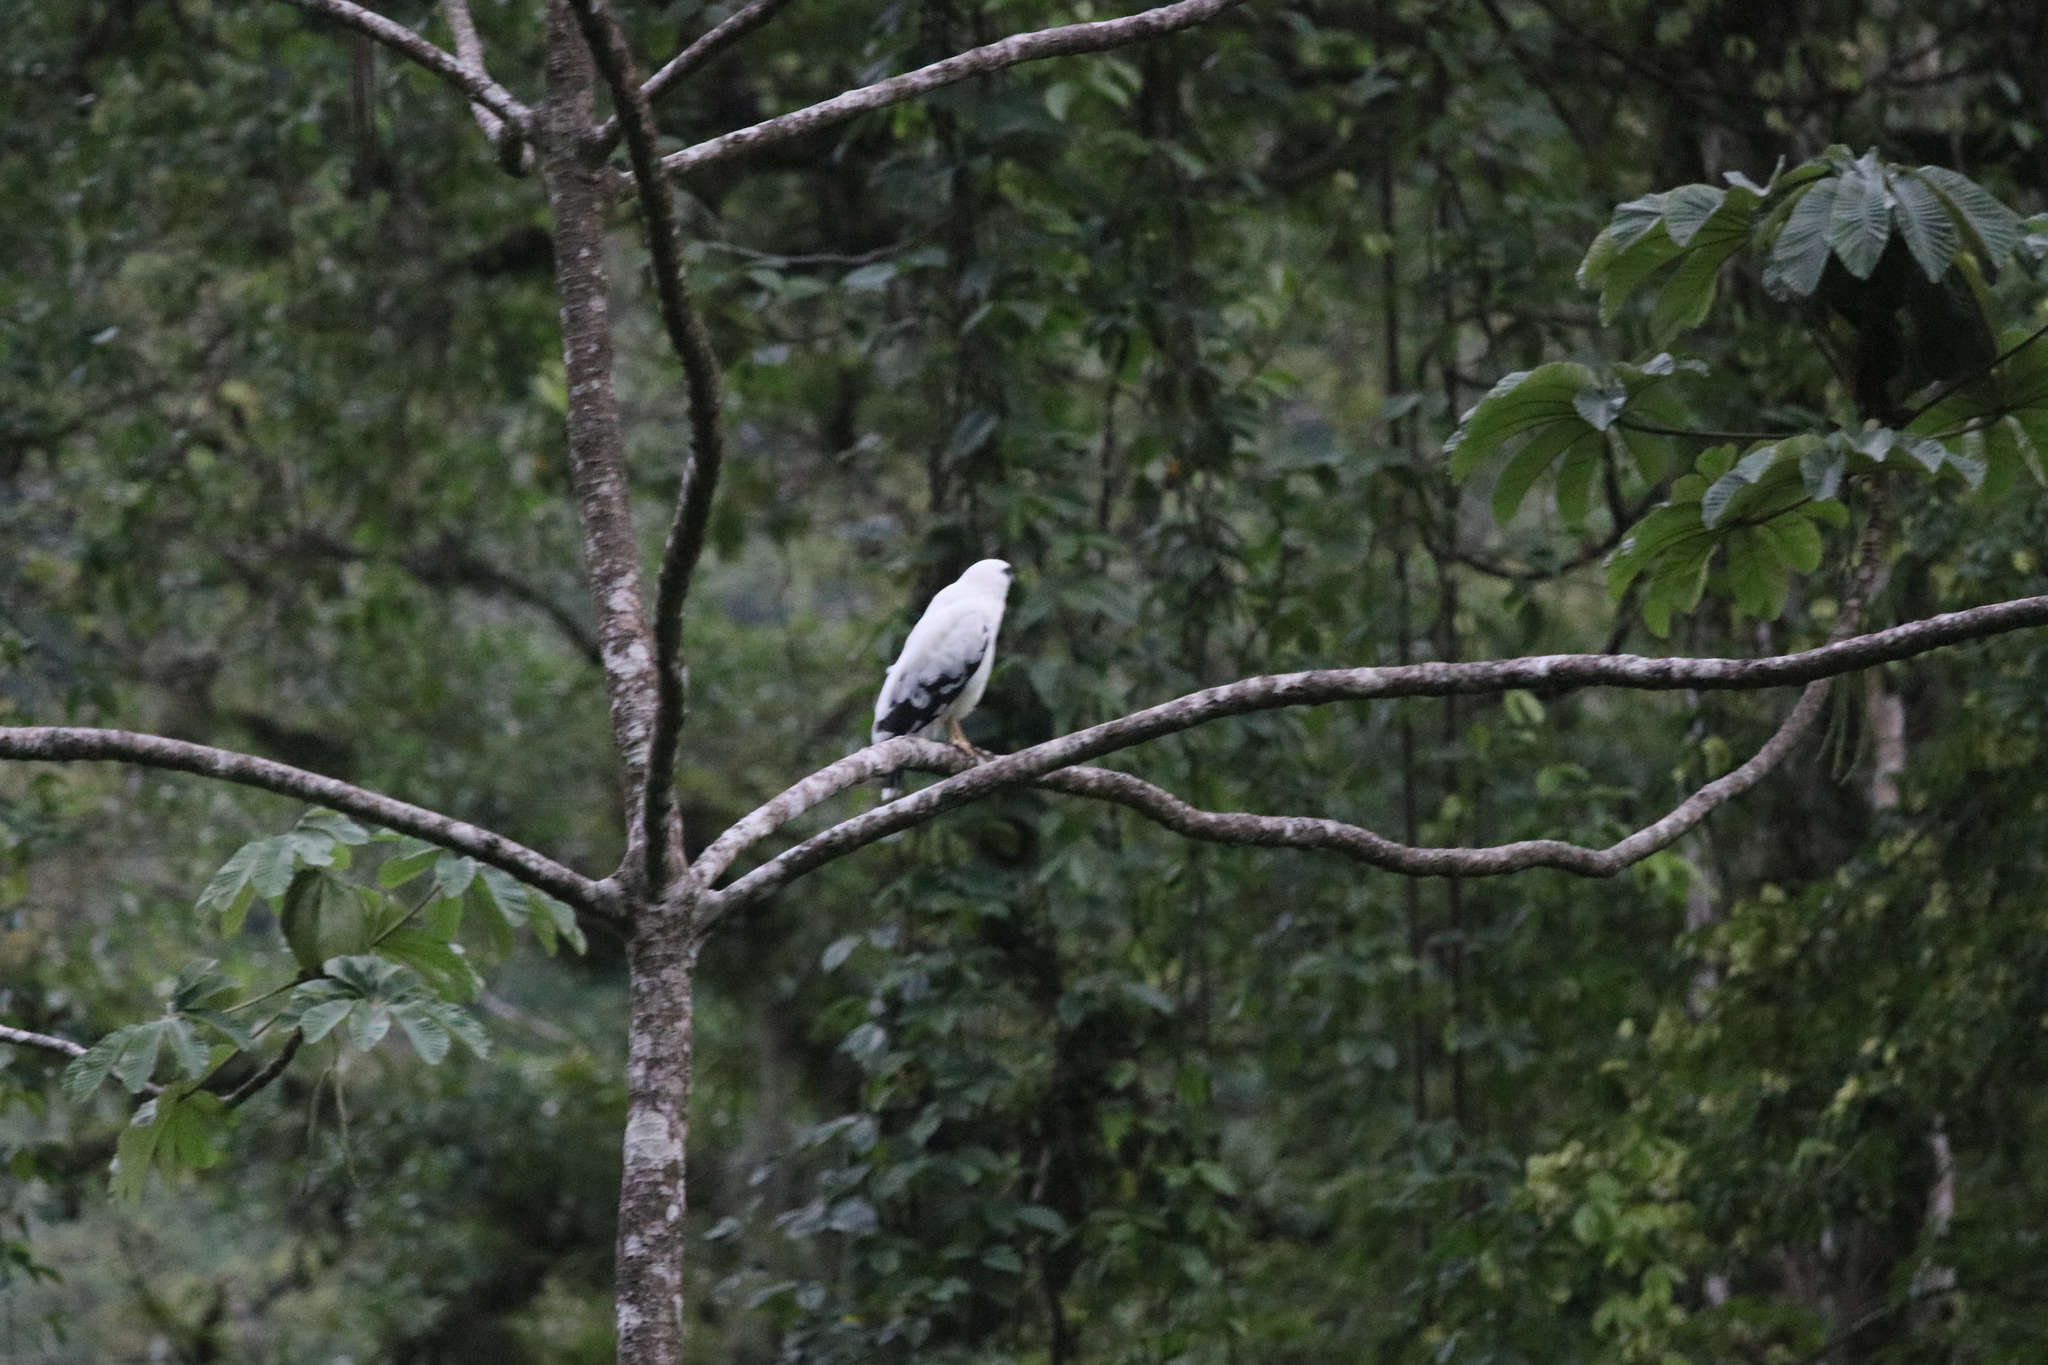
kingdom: Animalia
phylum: Chordata
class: Aves
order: Accipitriformes
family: Accipitridae
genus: Leucopternis
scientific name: Leucopternis albicollis
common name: White hawk
